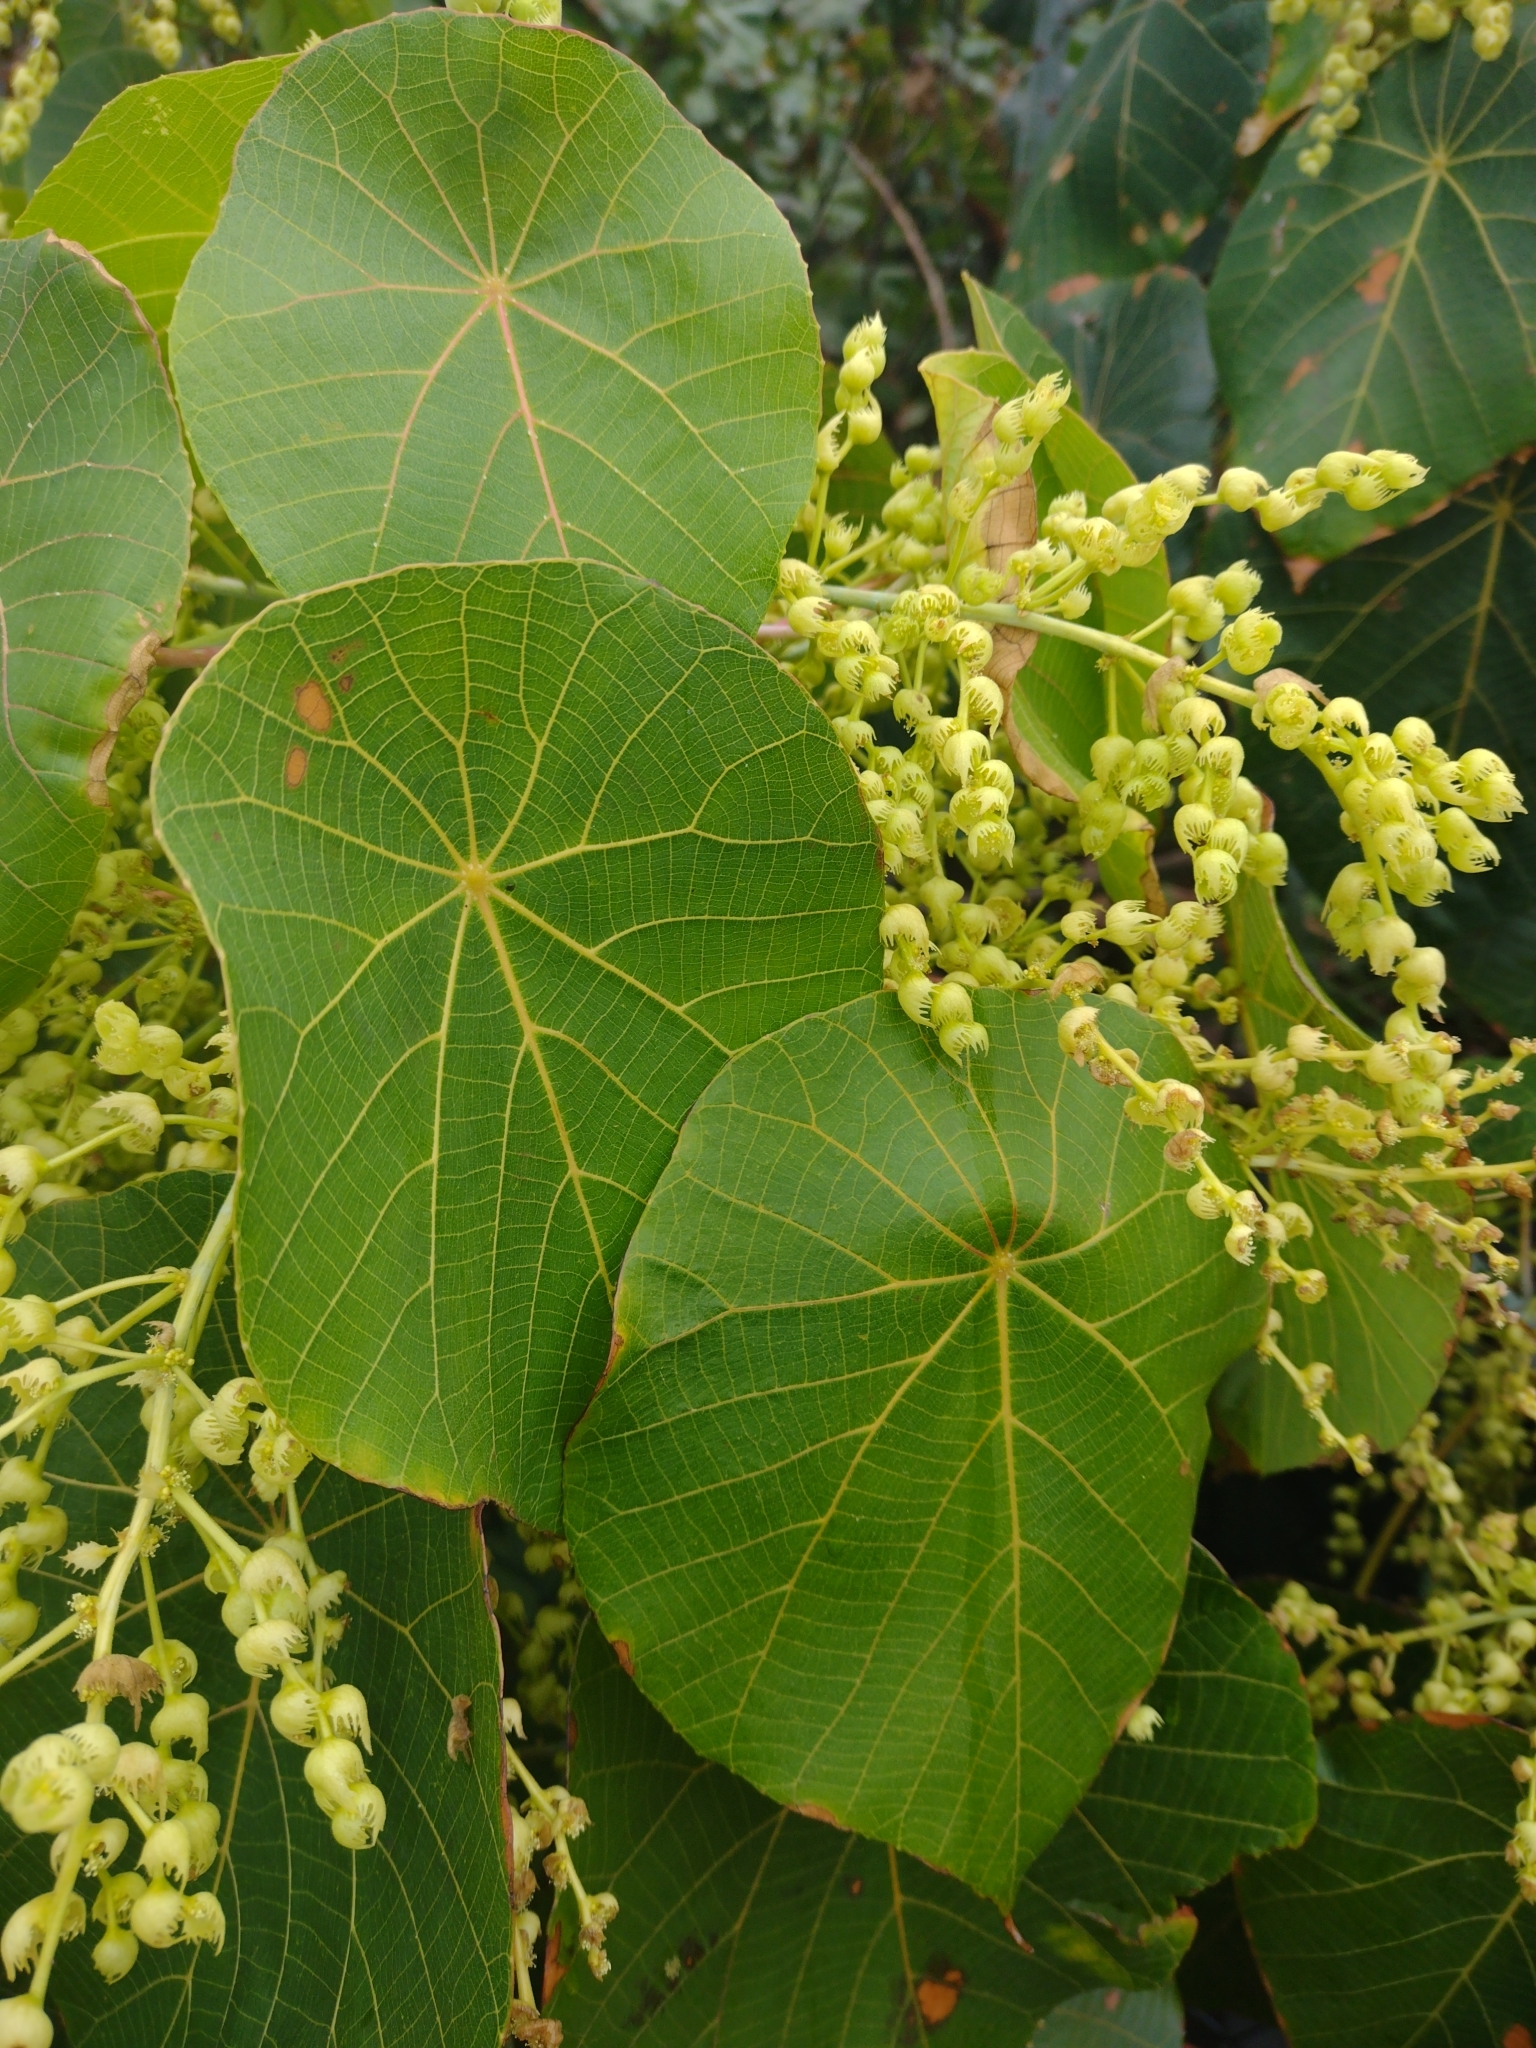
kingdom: Plantae
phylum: Tracheophyta
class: Magnoliopsida
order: Malpighiales
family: Euphorbiaceae
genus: Macaranga
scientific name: Macaranga tanarius
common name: Parasol leaf tree
